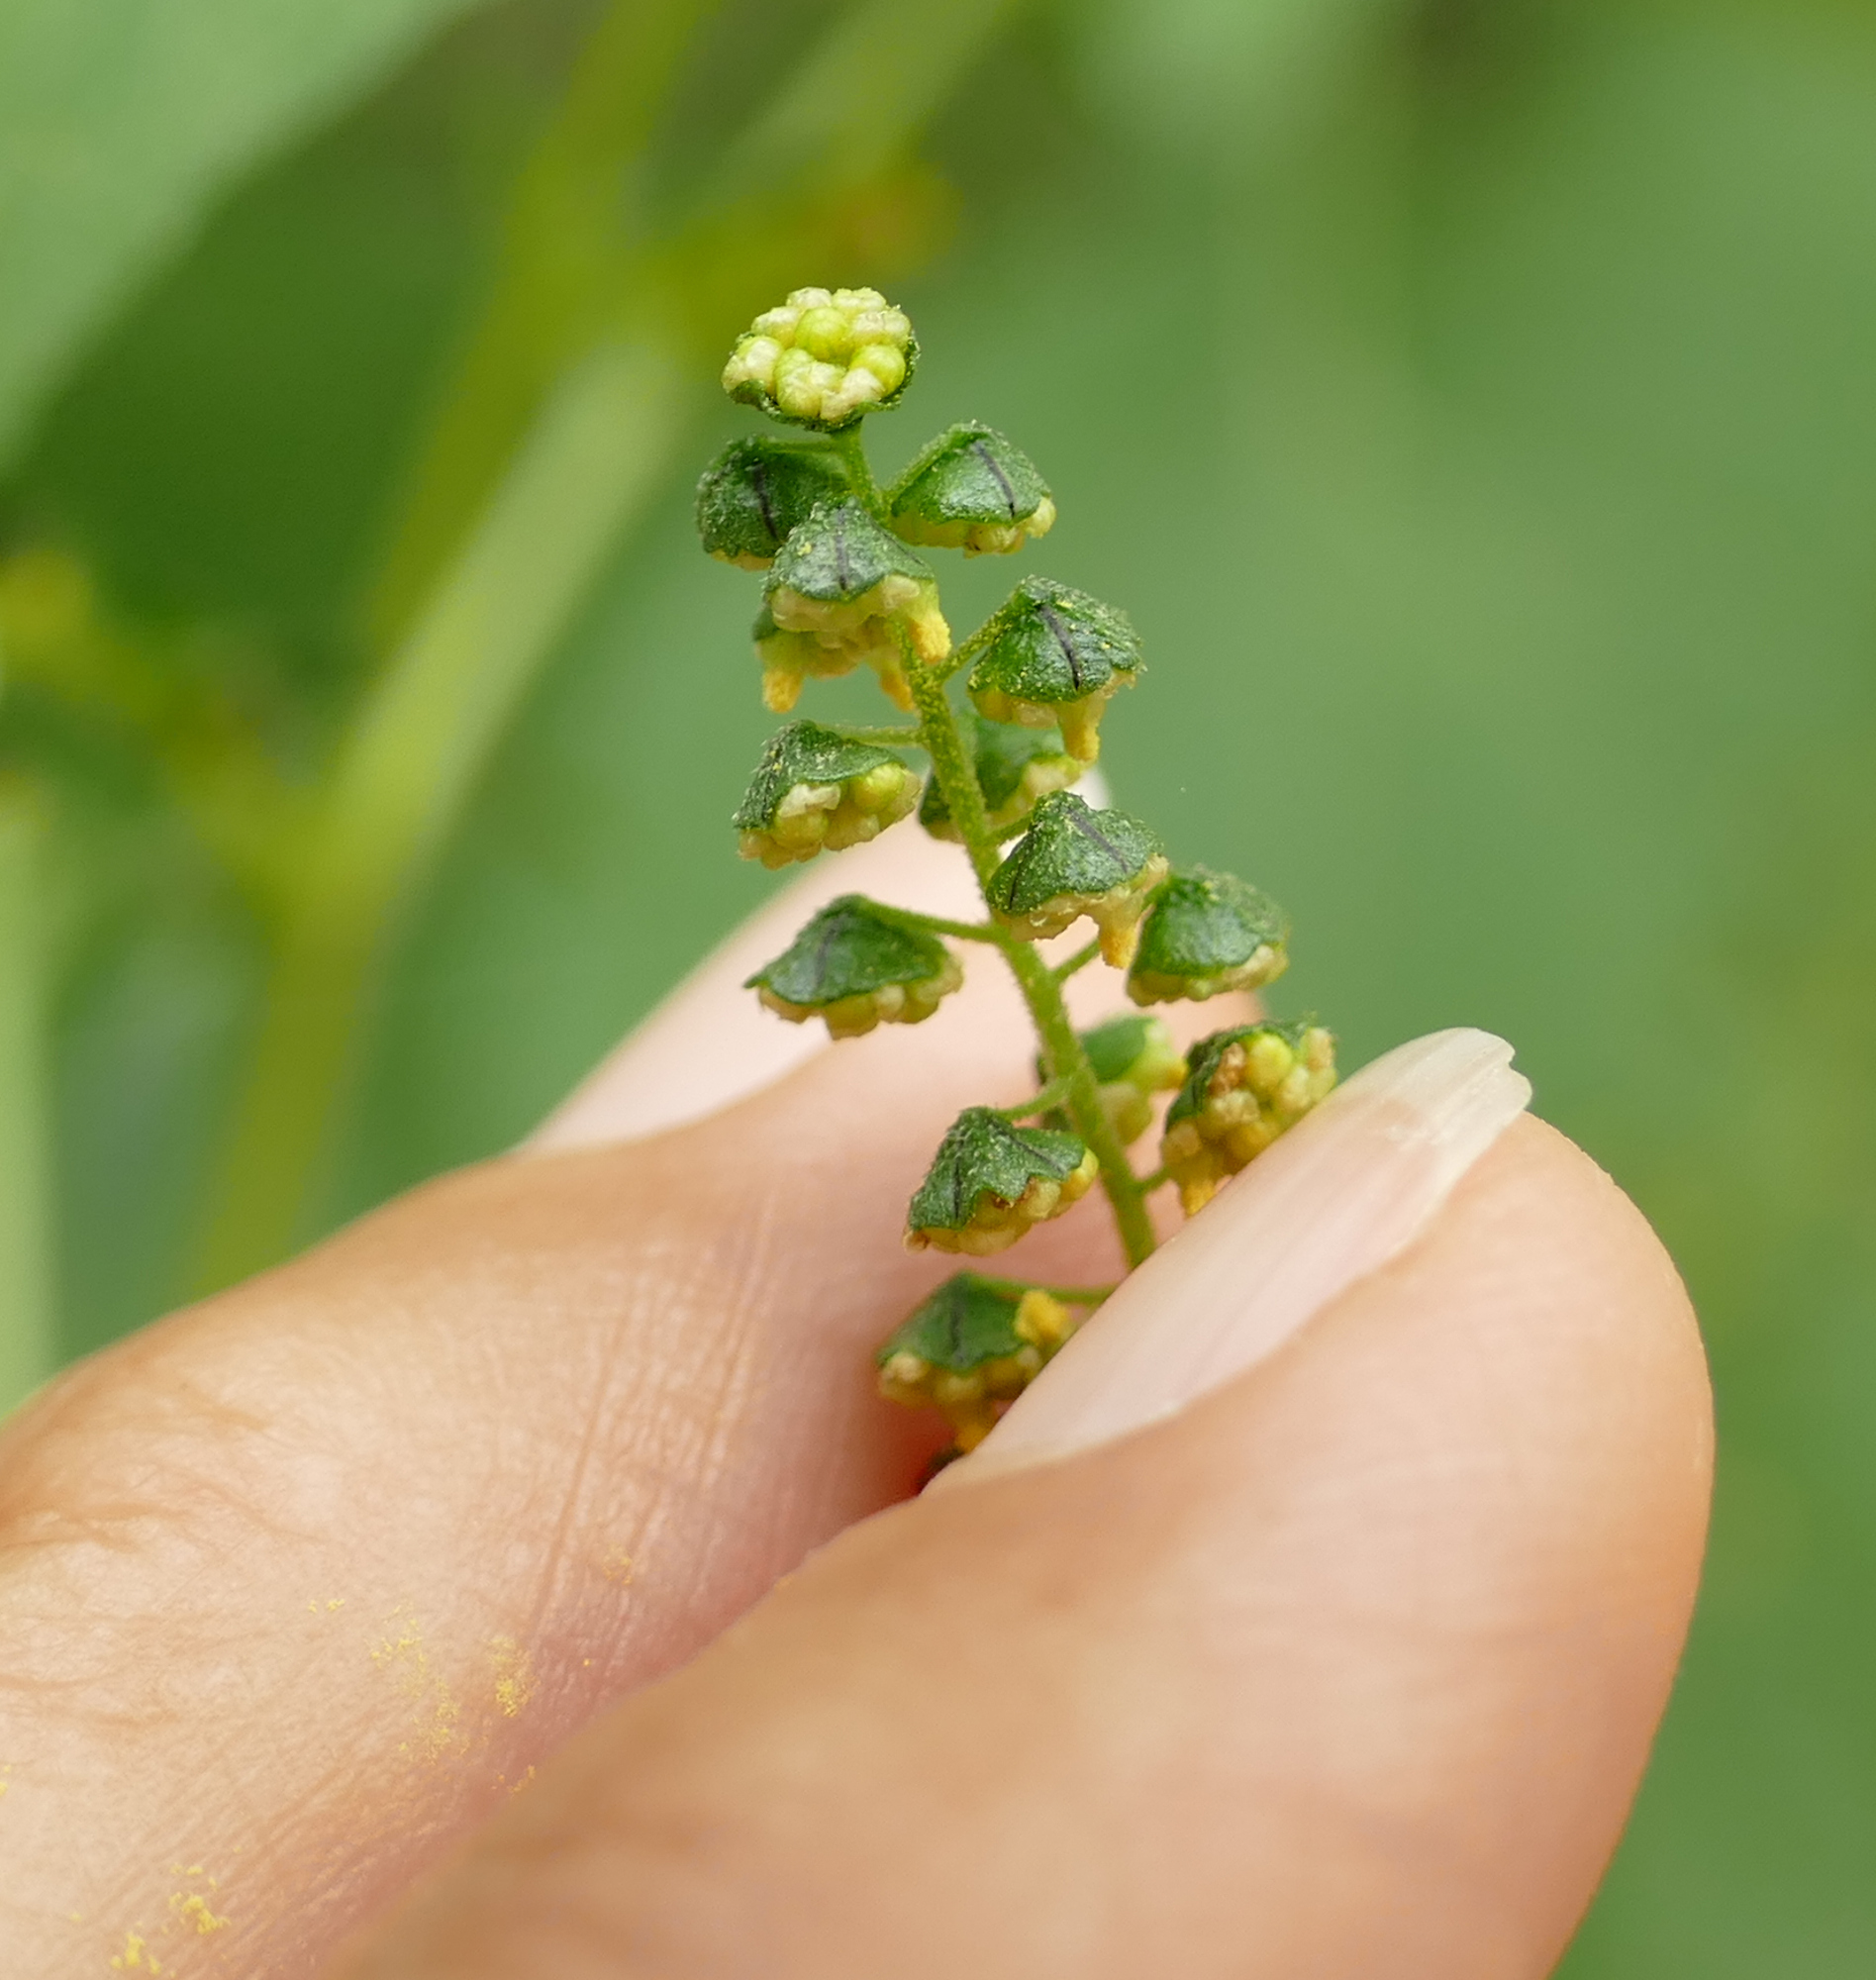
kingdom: Plantae
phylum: Tracheophyta
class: Magnoliopsida
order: Asterales
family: Asteraceae
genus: Ambrosia
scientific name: Ambrosia trifida
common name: Giant ragweed
